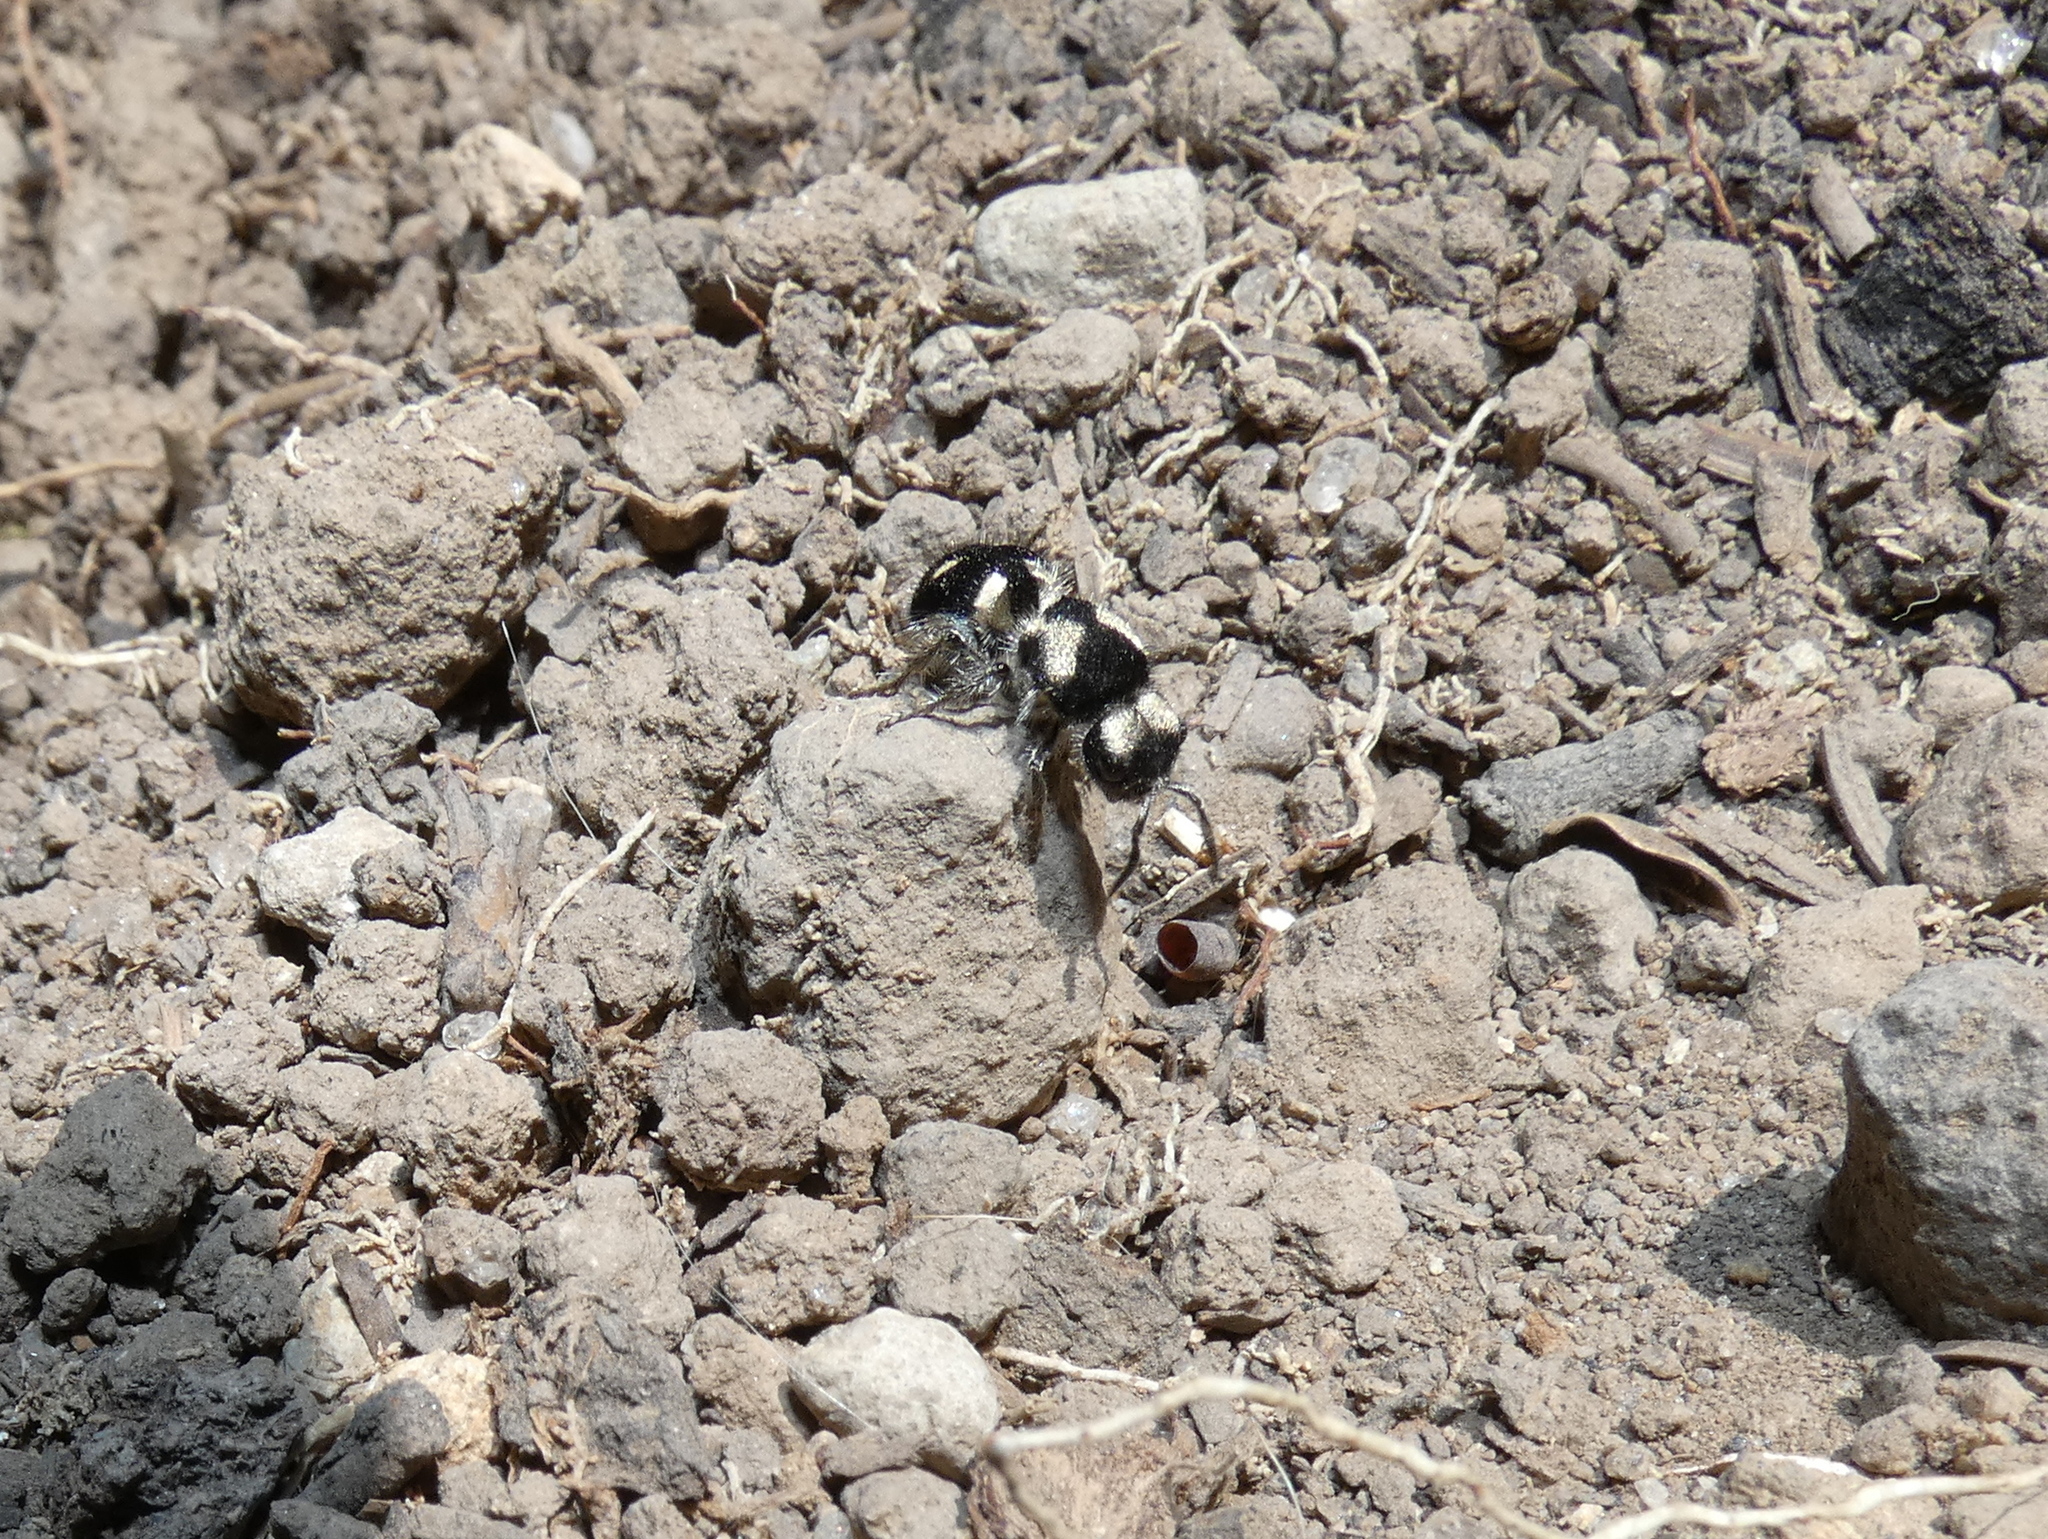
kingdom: Animalia
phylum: Arthropoda
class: Insecta
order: Hymenoptera
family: Mutillidae
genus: Hoplomutilla
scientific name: Hoplomutilla
